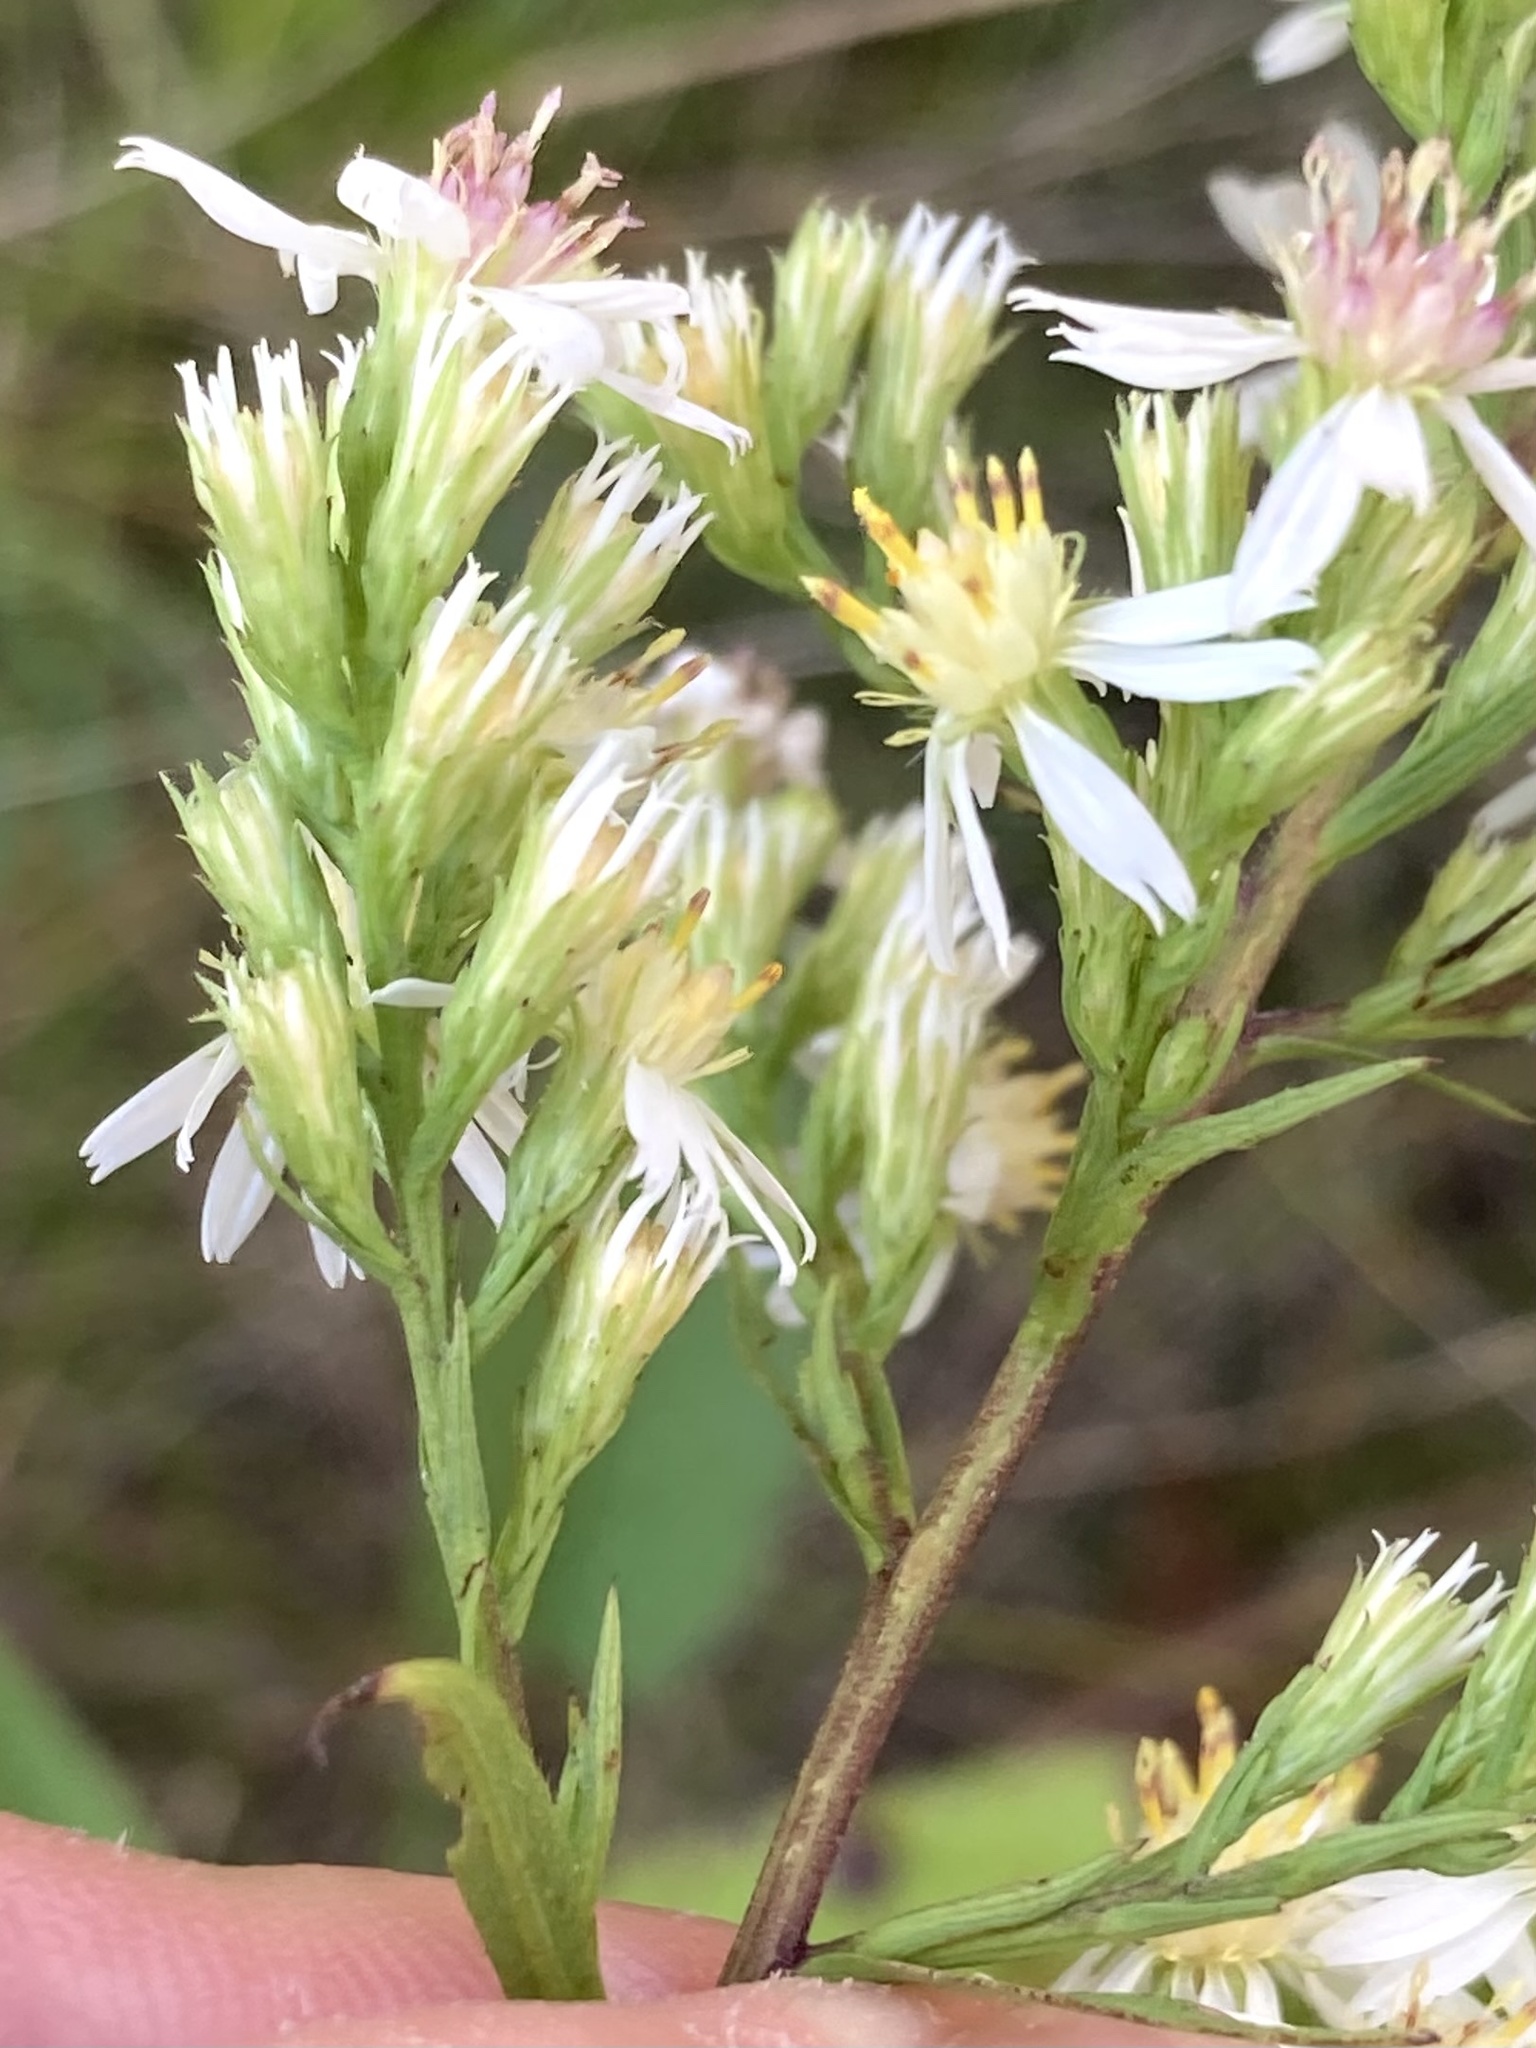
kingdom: Plantae
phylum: Tracheophyta
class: Magnoliopsida
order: Asterales
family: Asteraceae
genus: Symphyotrichum
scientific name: Symphyotrichum urophyllum
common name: Arrow-leaved aster
